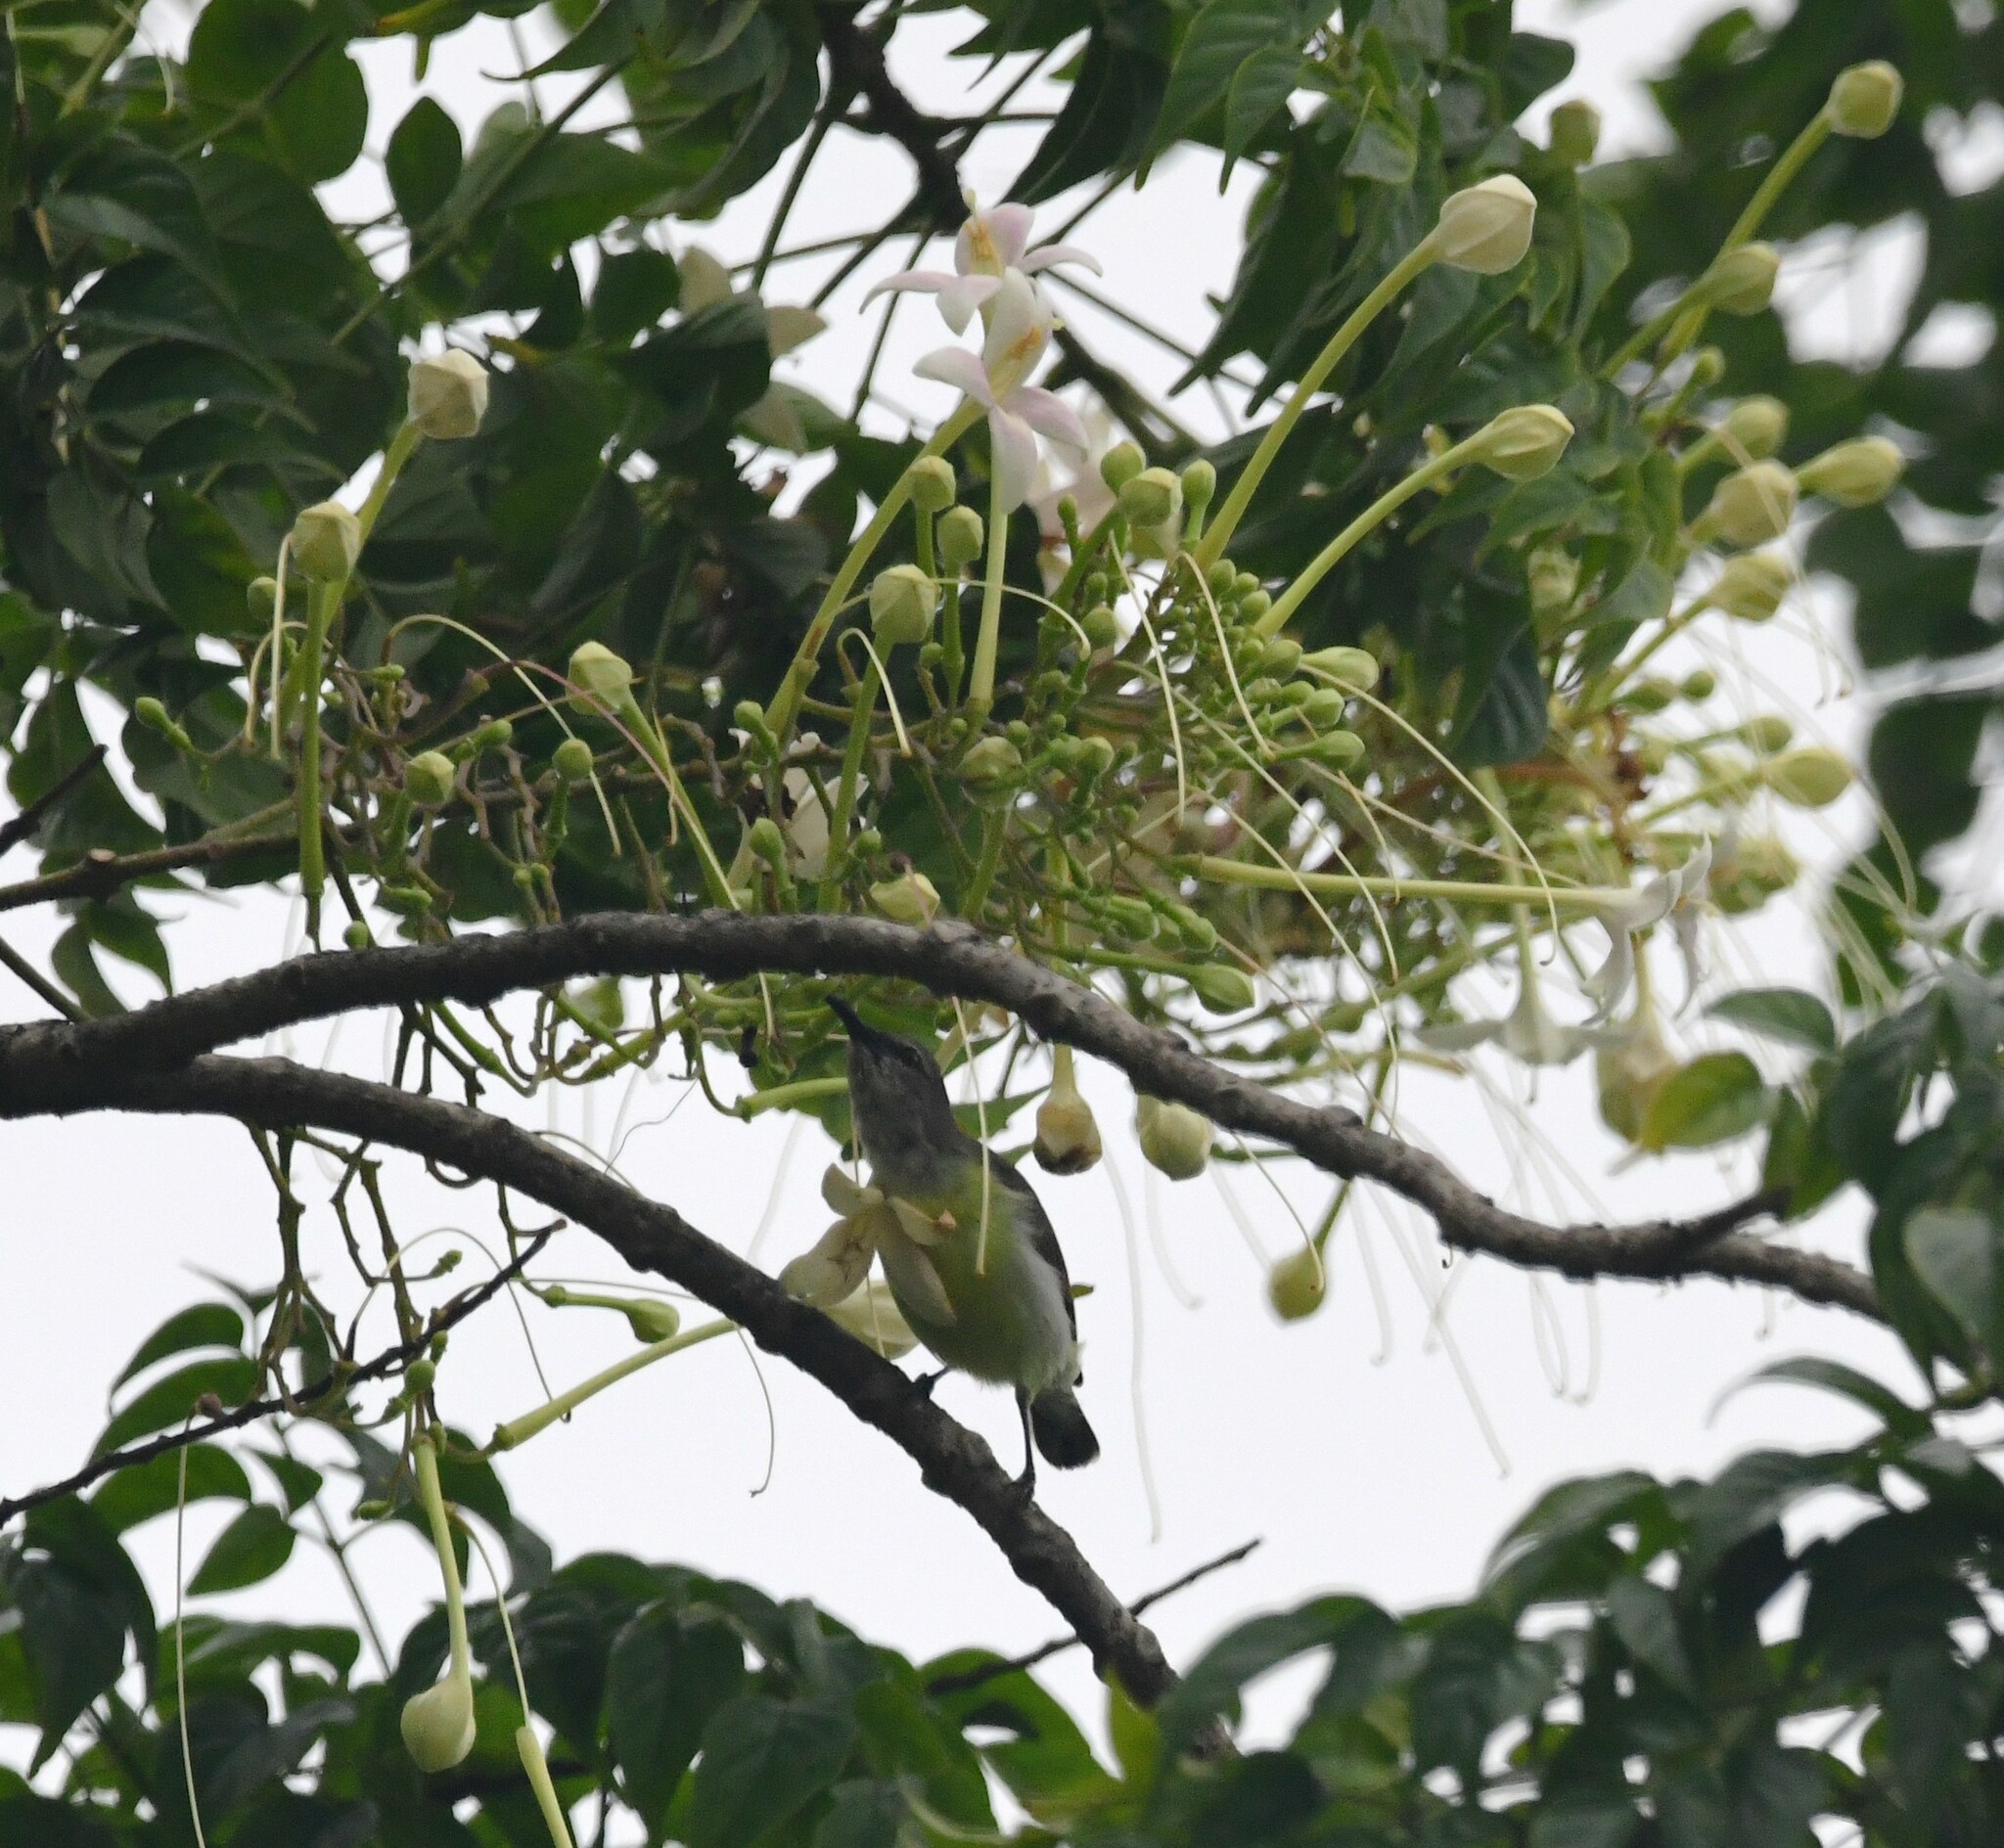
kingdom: Animalia
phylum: Chordata
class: Aves
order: Passeriformes
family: Nectariniidae
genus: Leptocoma
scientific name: Leptocoma zeylonica
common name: Purple-rumped sunbird
